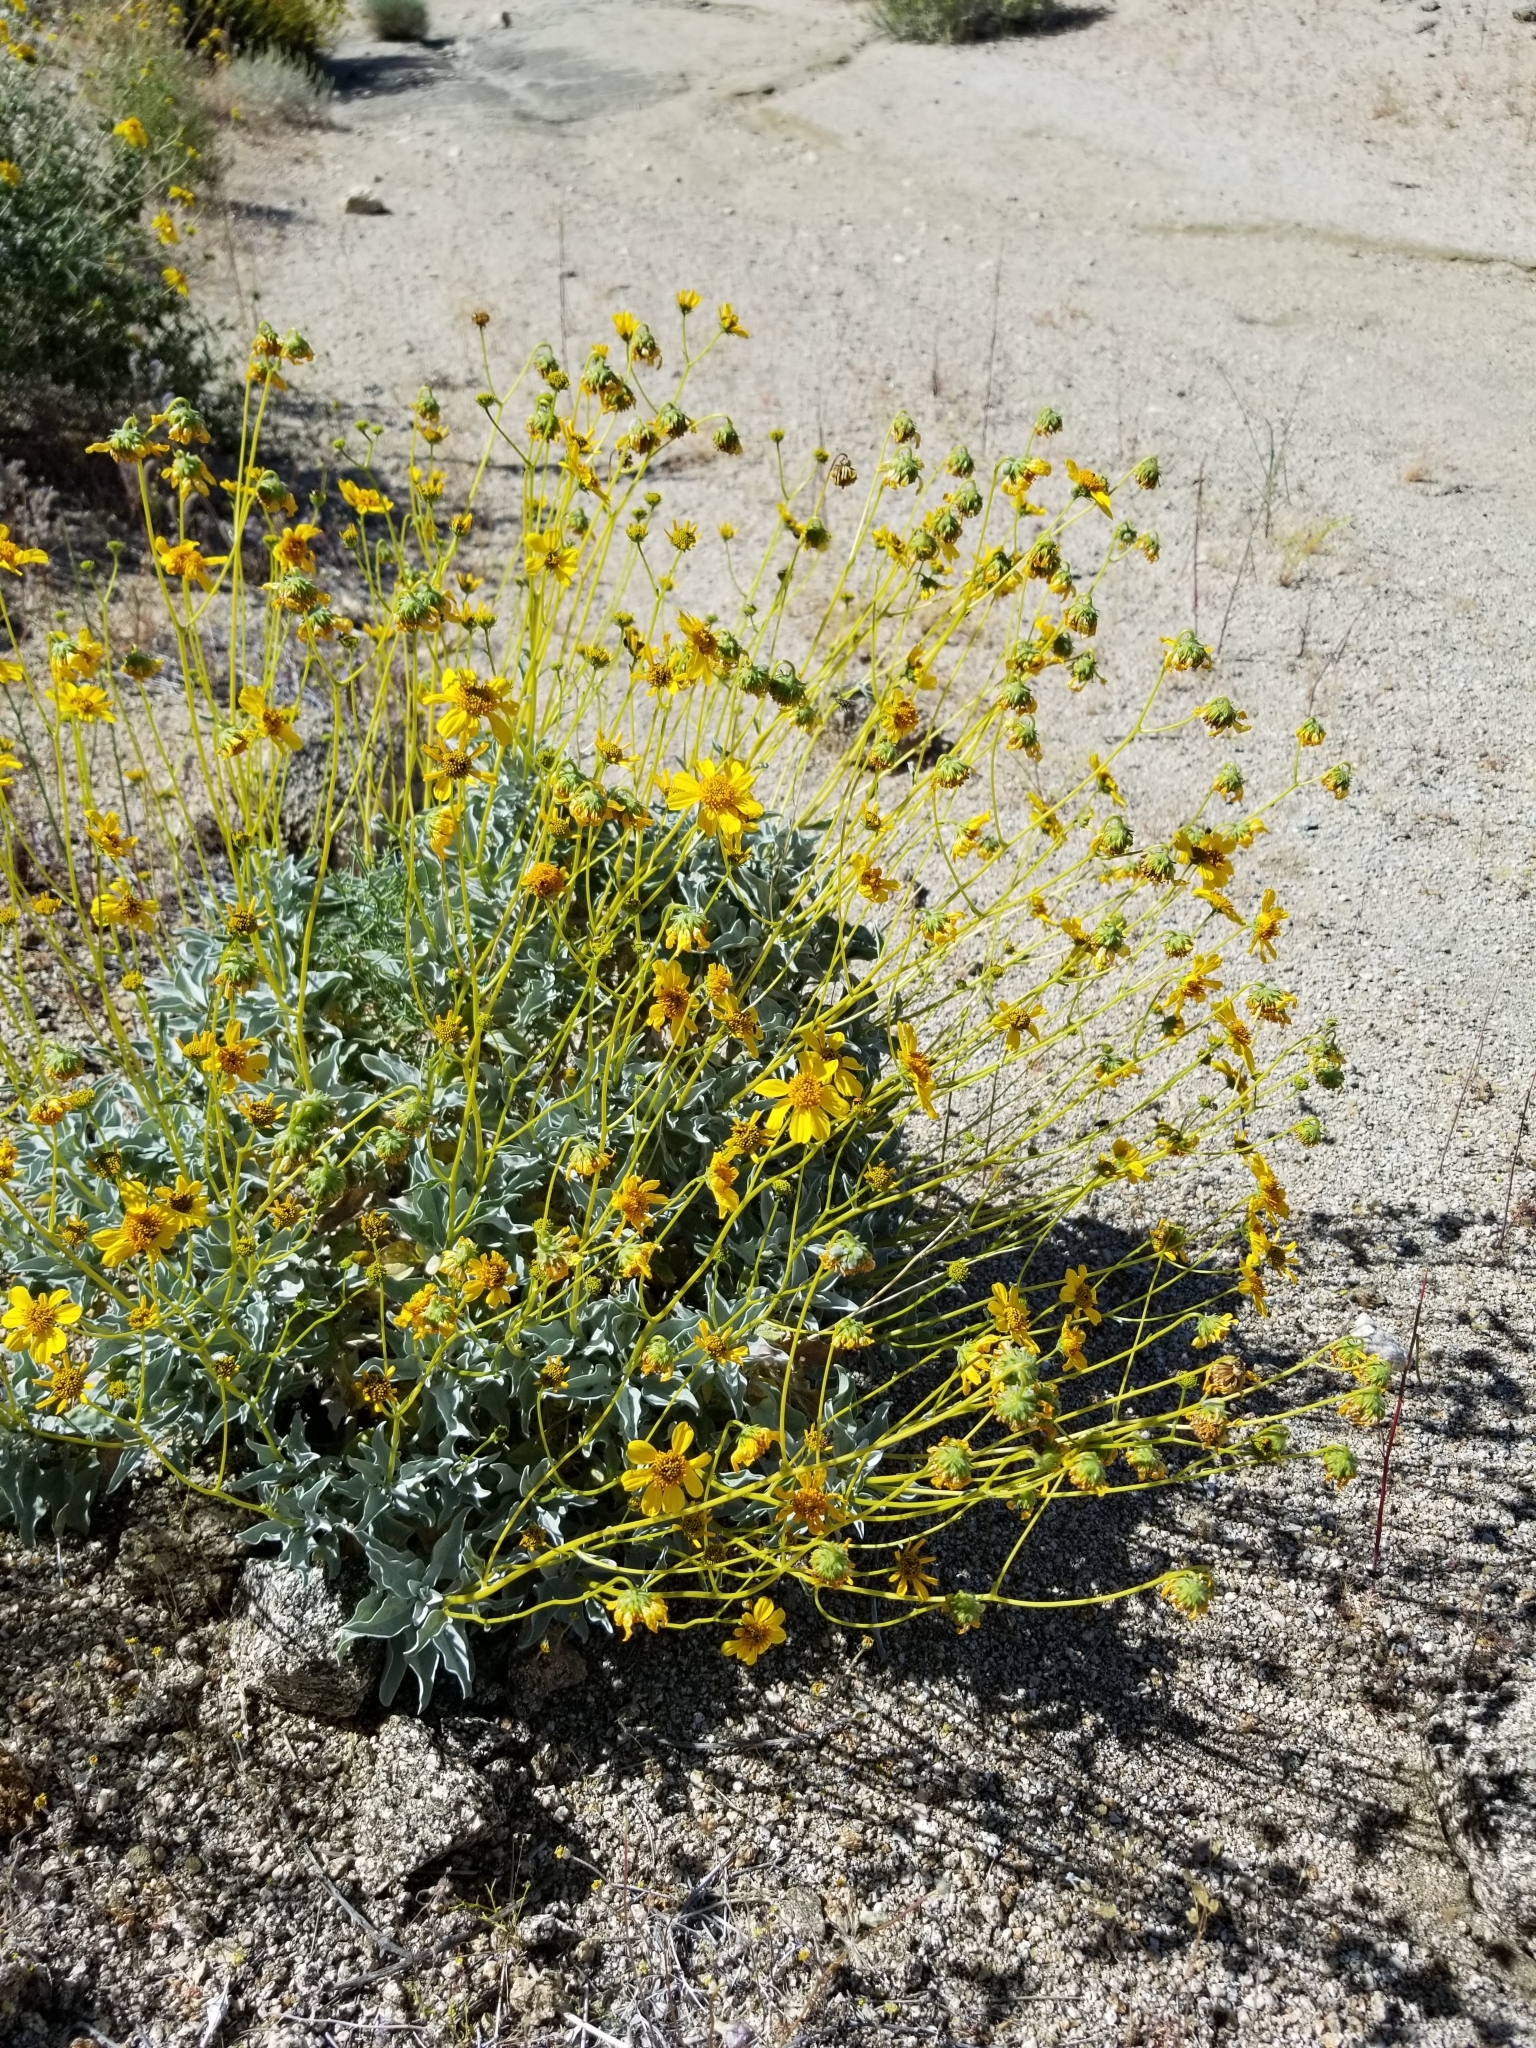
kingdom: Plantae
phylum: Tracheophyta
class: Magnoliopsida
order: Asterales
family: Asteraceae
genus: Encelia
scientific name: Encelia farinosa
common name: Brittlebush
